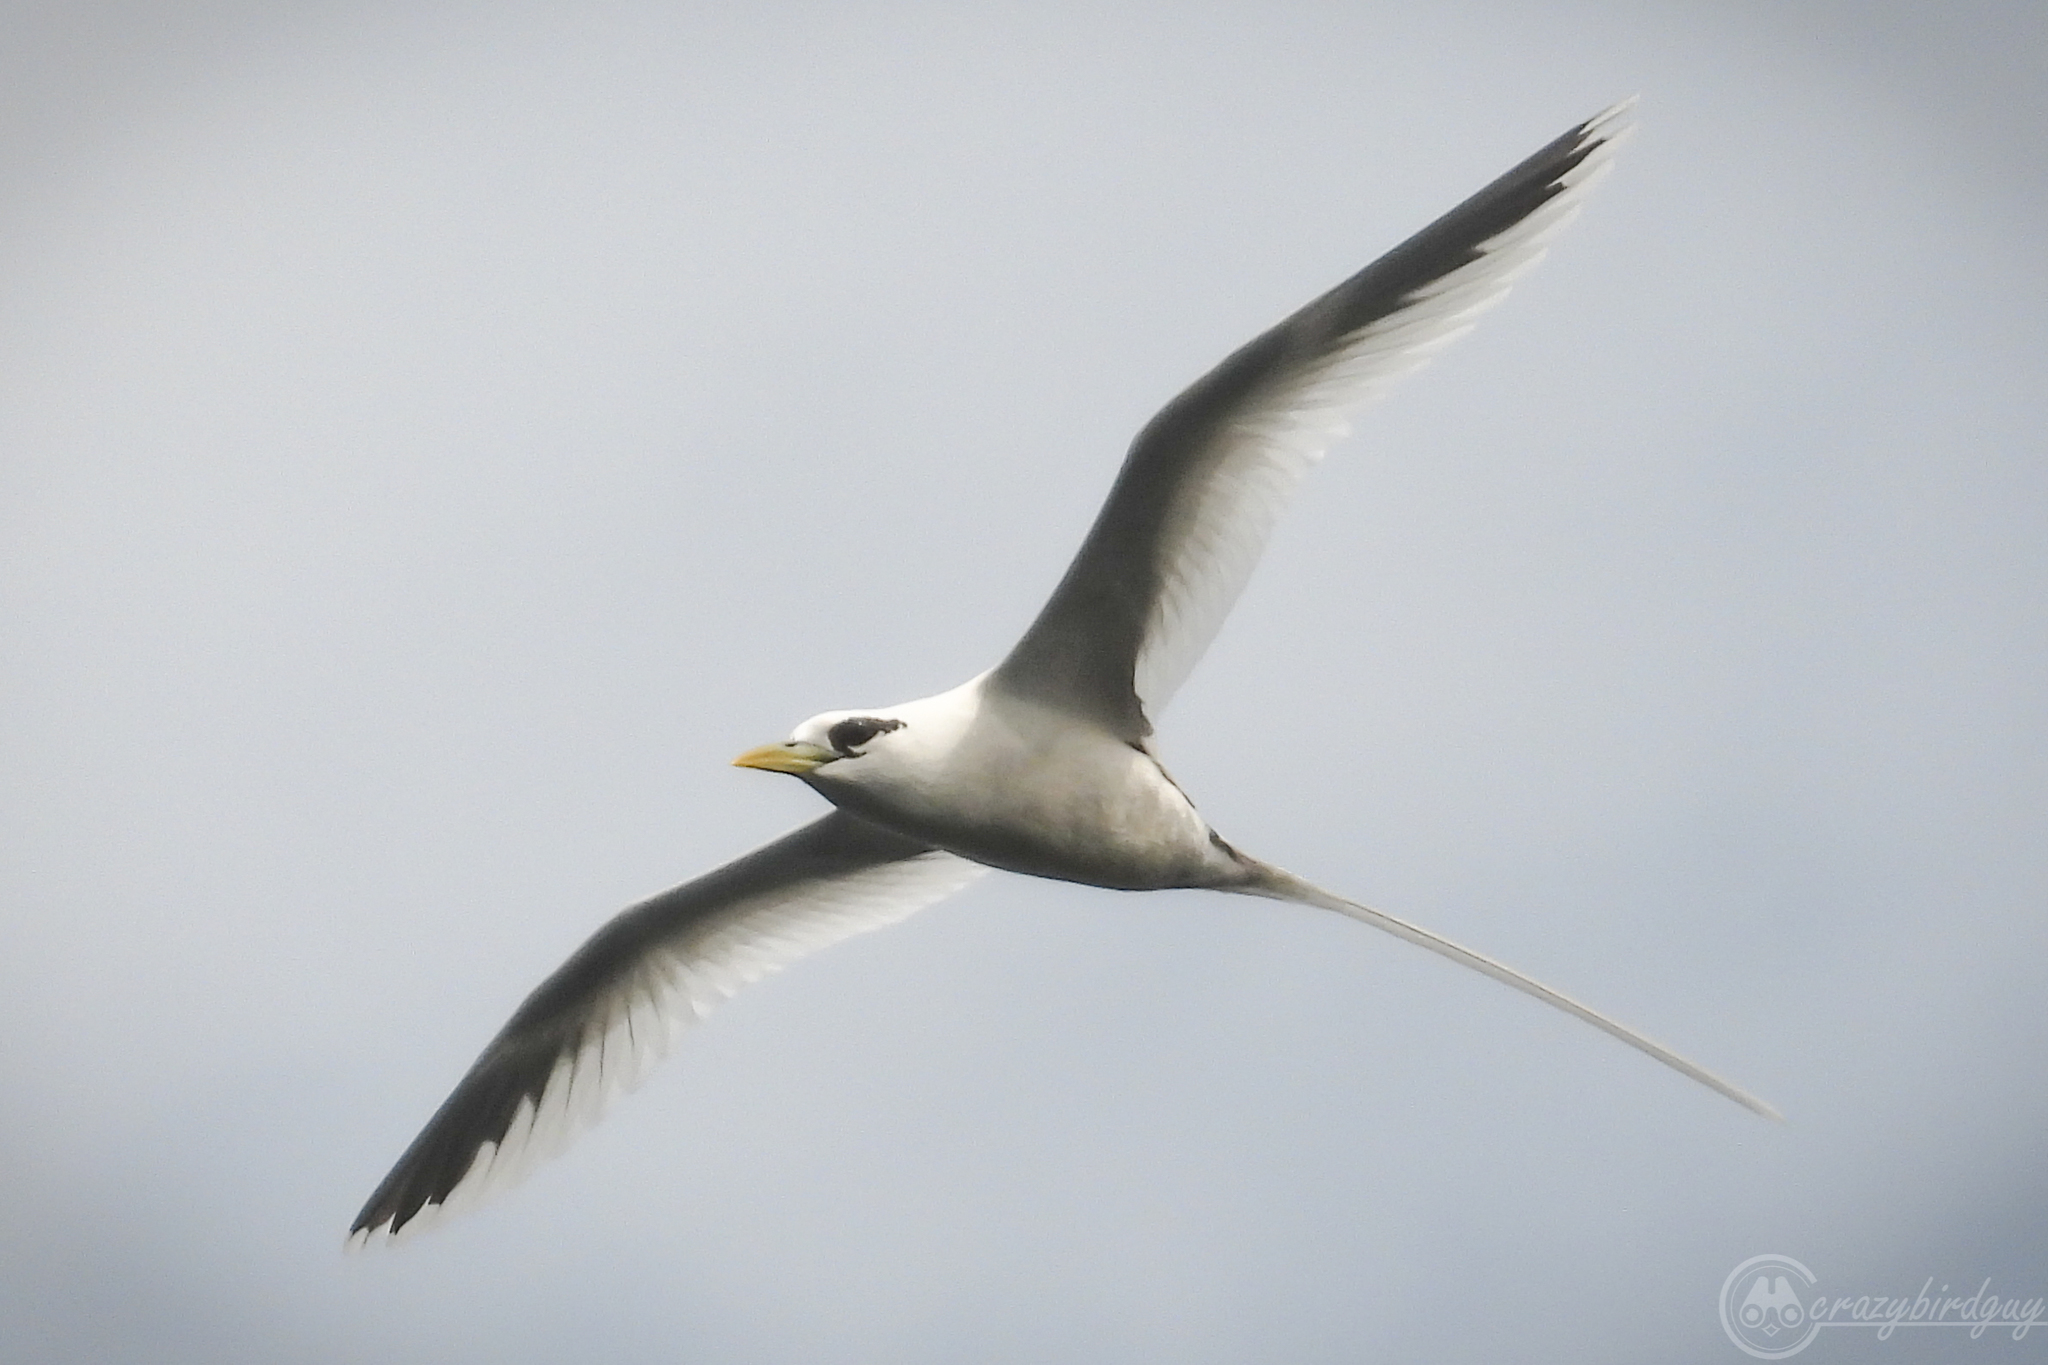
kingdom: Animalia
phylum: Chordata
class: Aves
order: Phaethontiformes
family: Phaethontidae
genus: Phaethon
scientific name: Phaethon lepturus
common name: White-tailed tropicbird
